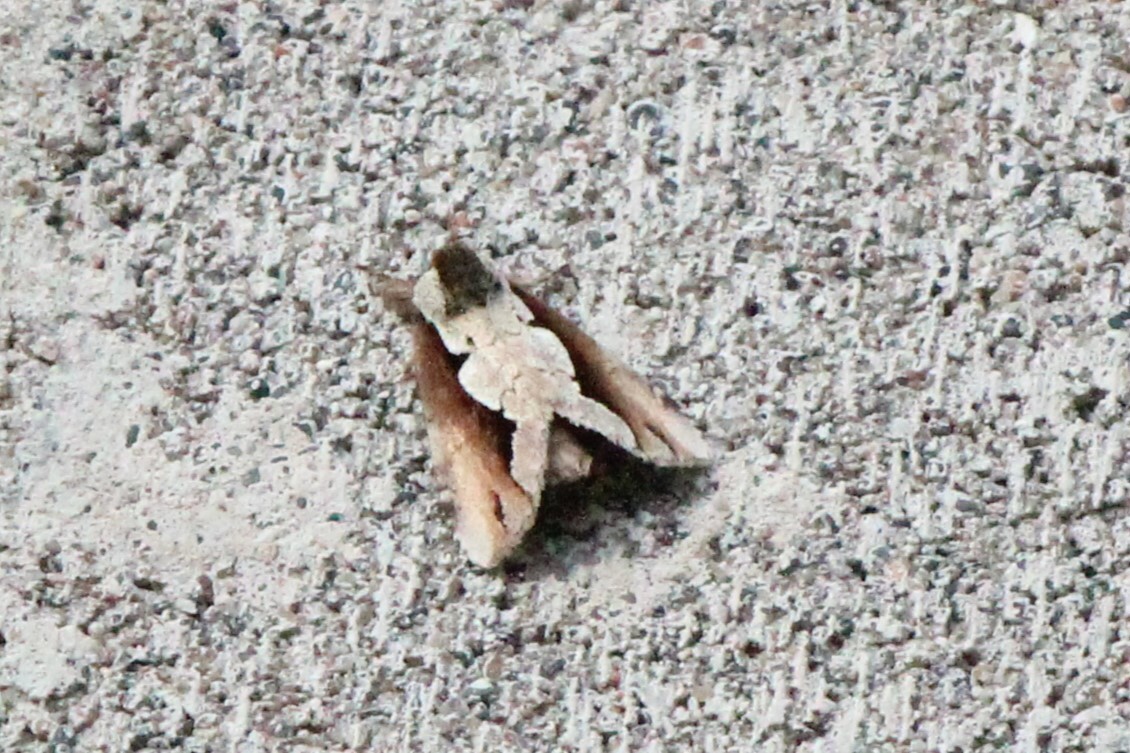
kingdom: Animalia
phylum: Arthropoda
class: Insecta
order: Lepidoptera
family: Notodontidae
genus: Nerice
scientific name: Nerice bidentata
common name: Double-toothed prominent
